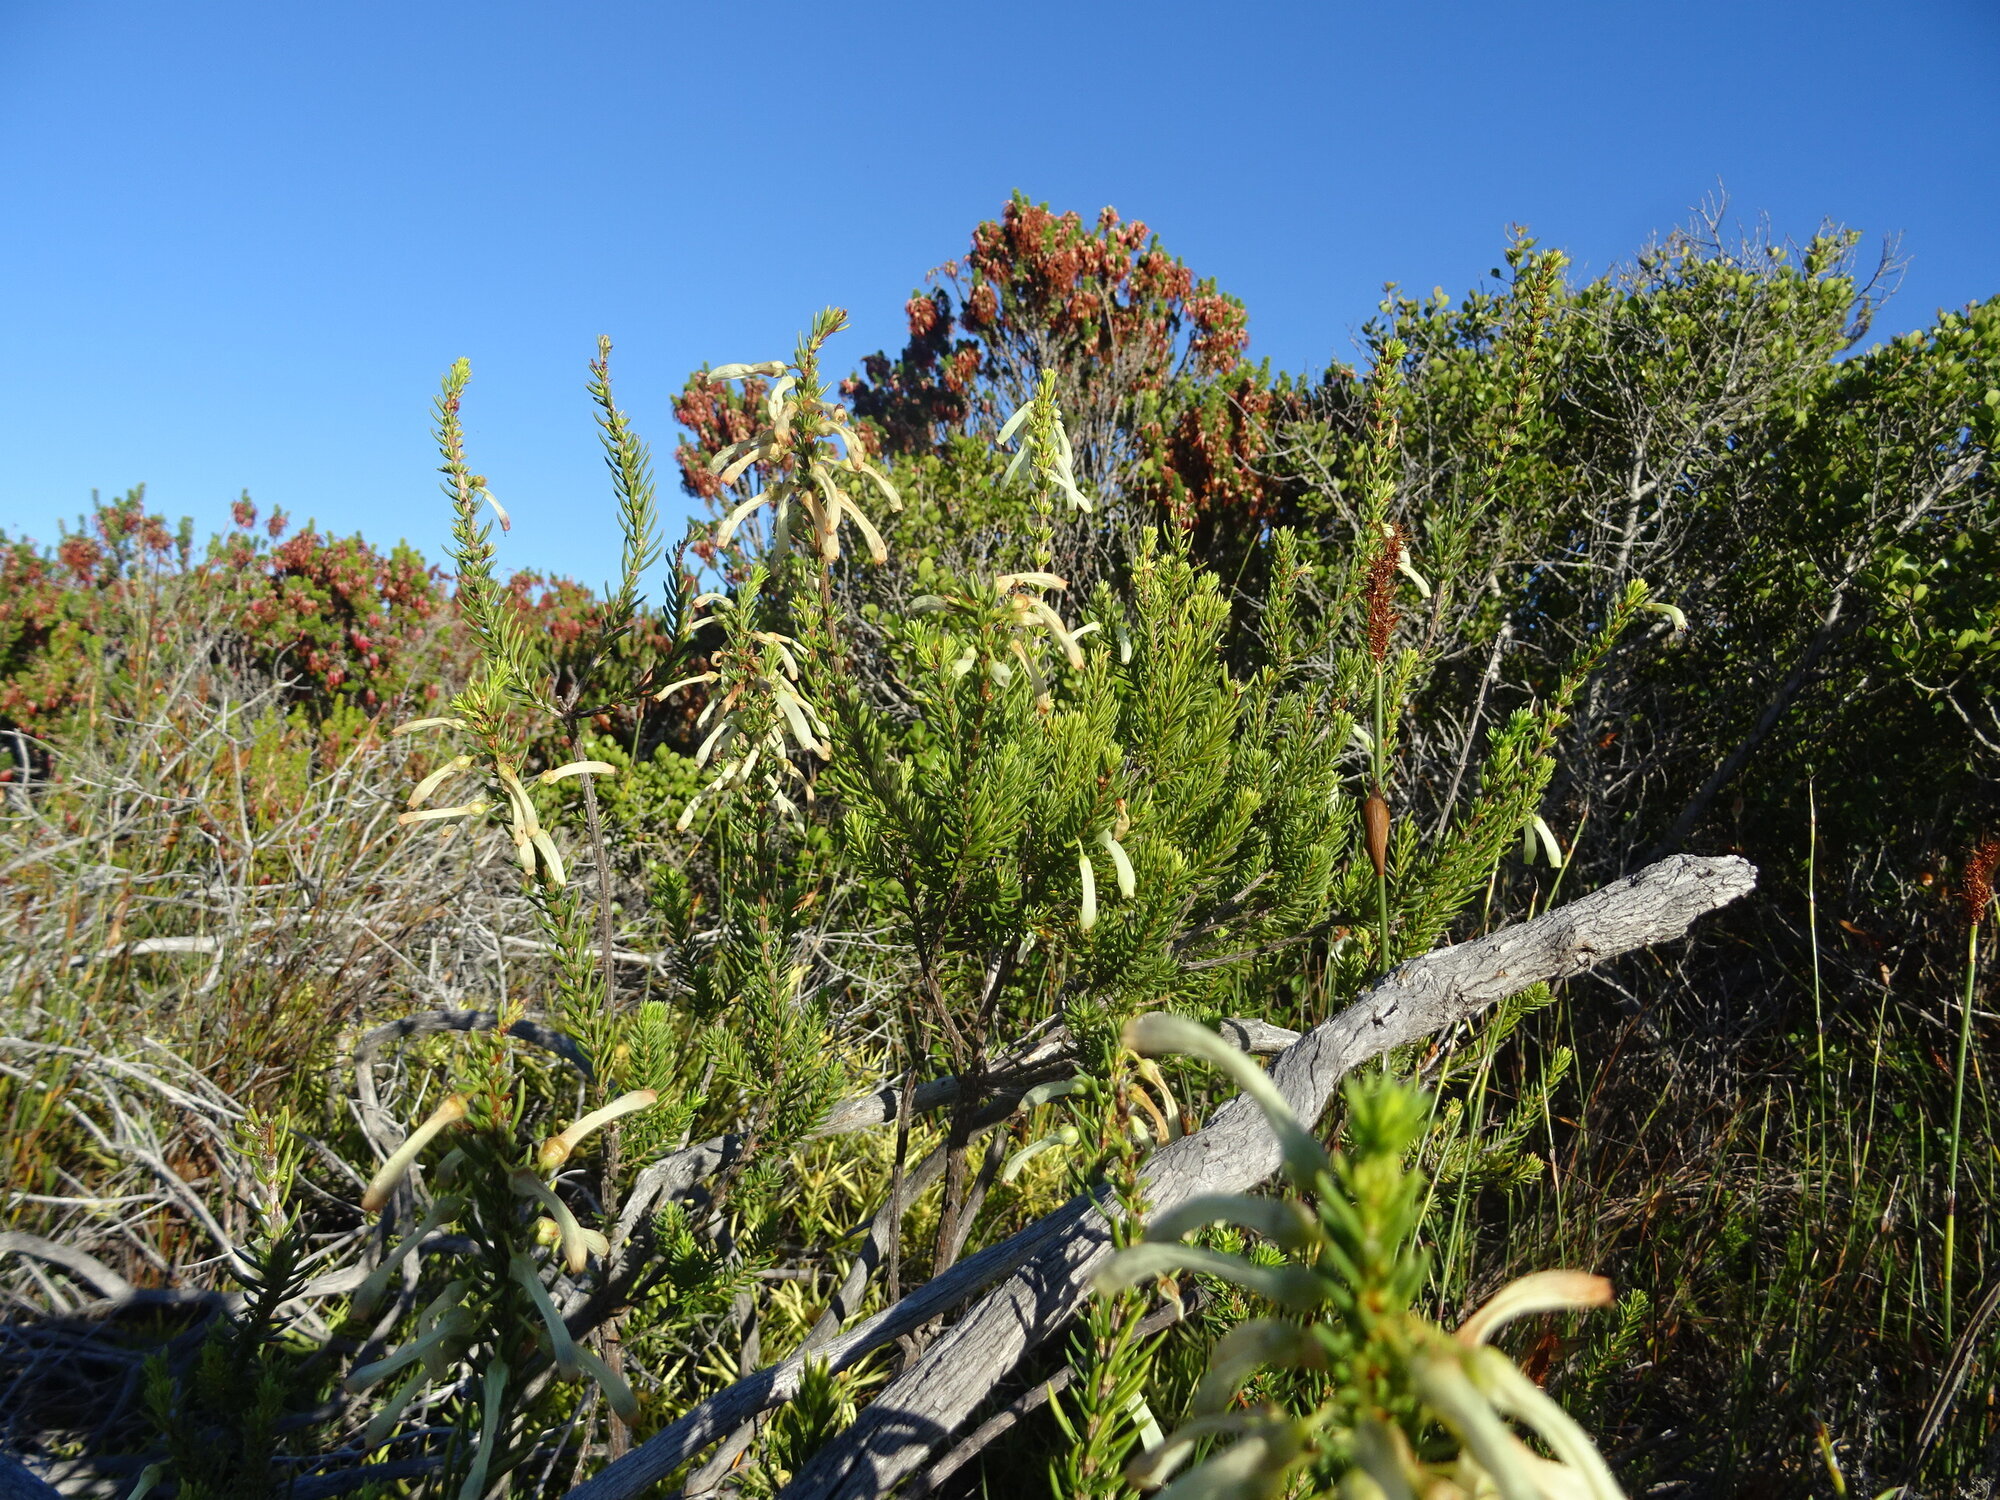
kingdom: Plantae
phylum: Tracheophyta
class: Magnoliopsida
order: Ericales
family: Ericaceae
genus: Erica
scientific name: Erica mammosa
